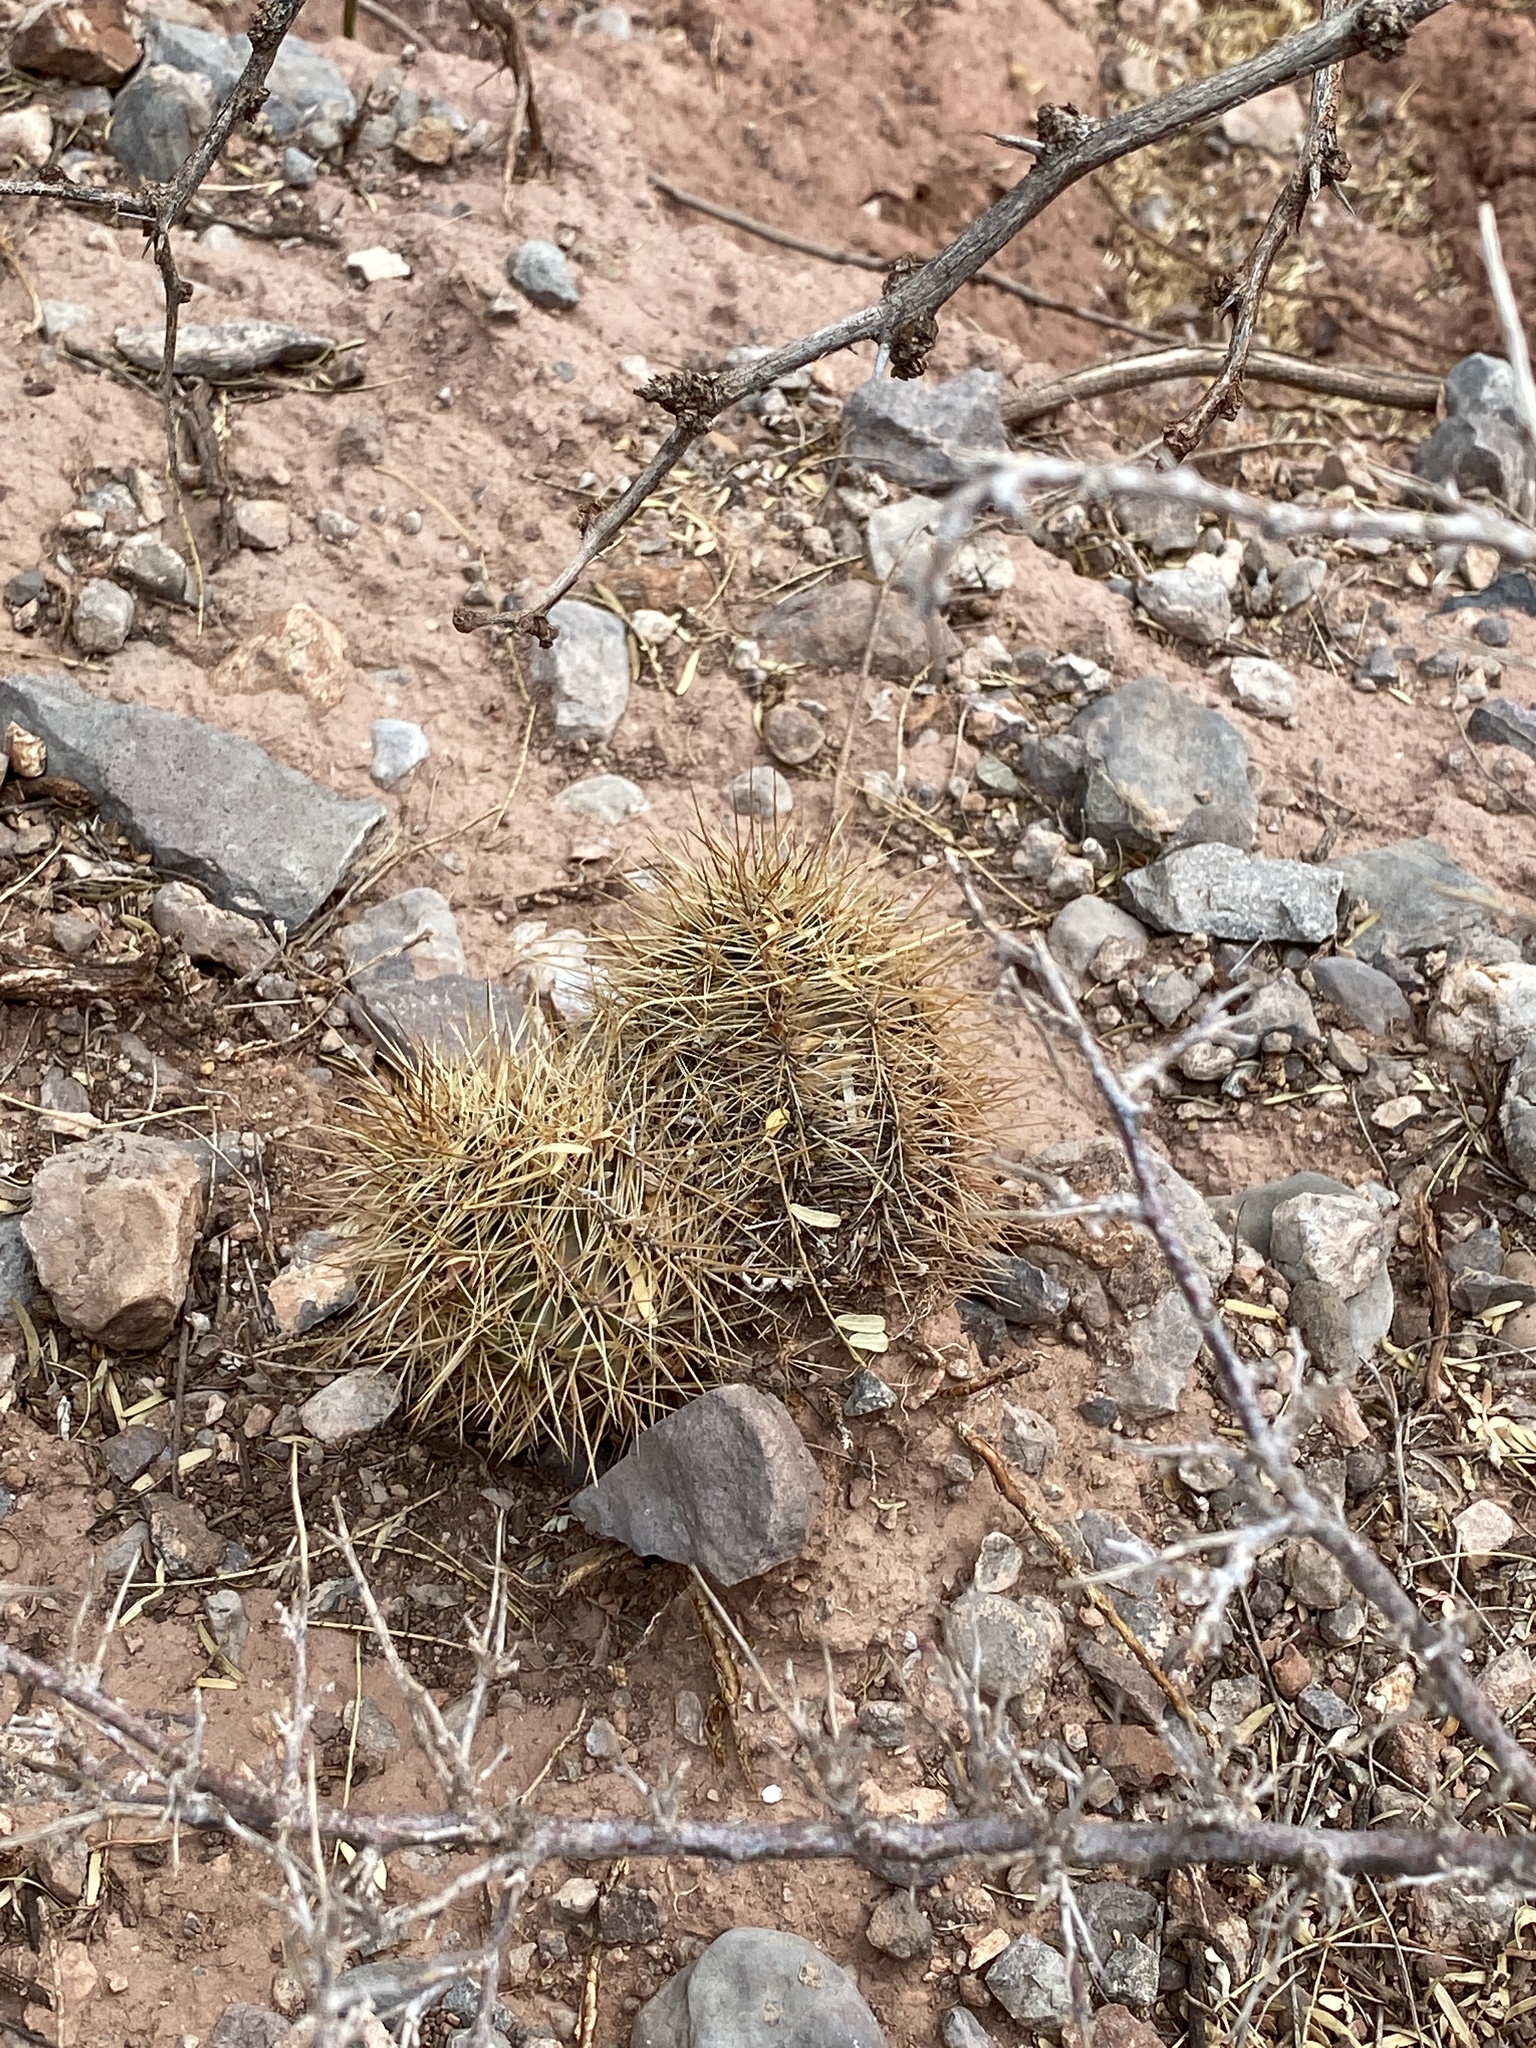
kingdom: Plantae
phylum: Tracheophyta
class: Magnoliopsida
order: Caryophyllales
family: Cactaceae
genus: Echinocereus
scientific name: Echinocereus coccineus
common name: Scarlet hedgehog cactus
